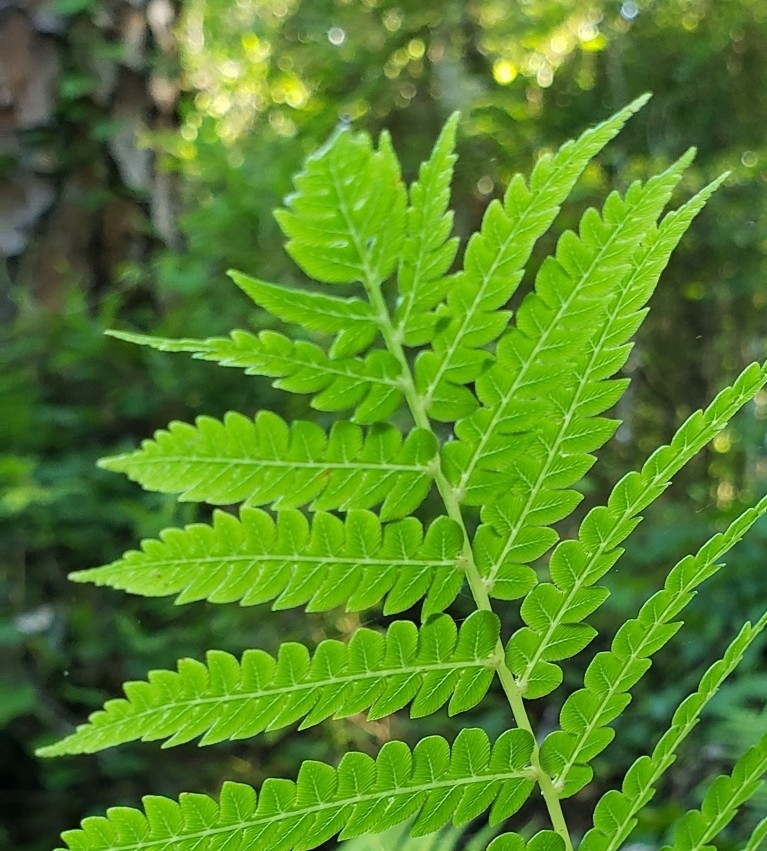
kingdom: Plantae
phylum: Tracheophyta
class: Polypodiopsida
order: Osmundales
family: Osmundaceae
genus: Osmundastrum
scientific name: Osmundastrum cinnamomeum
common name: Cinnamon fern
